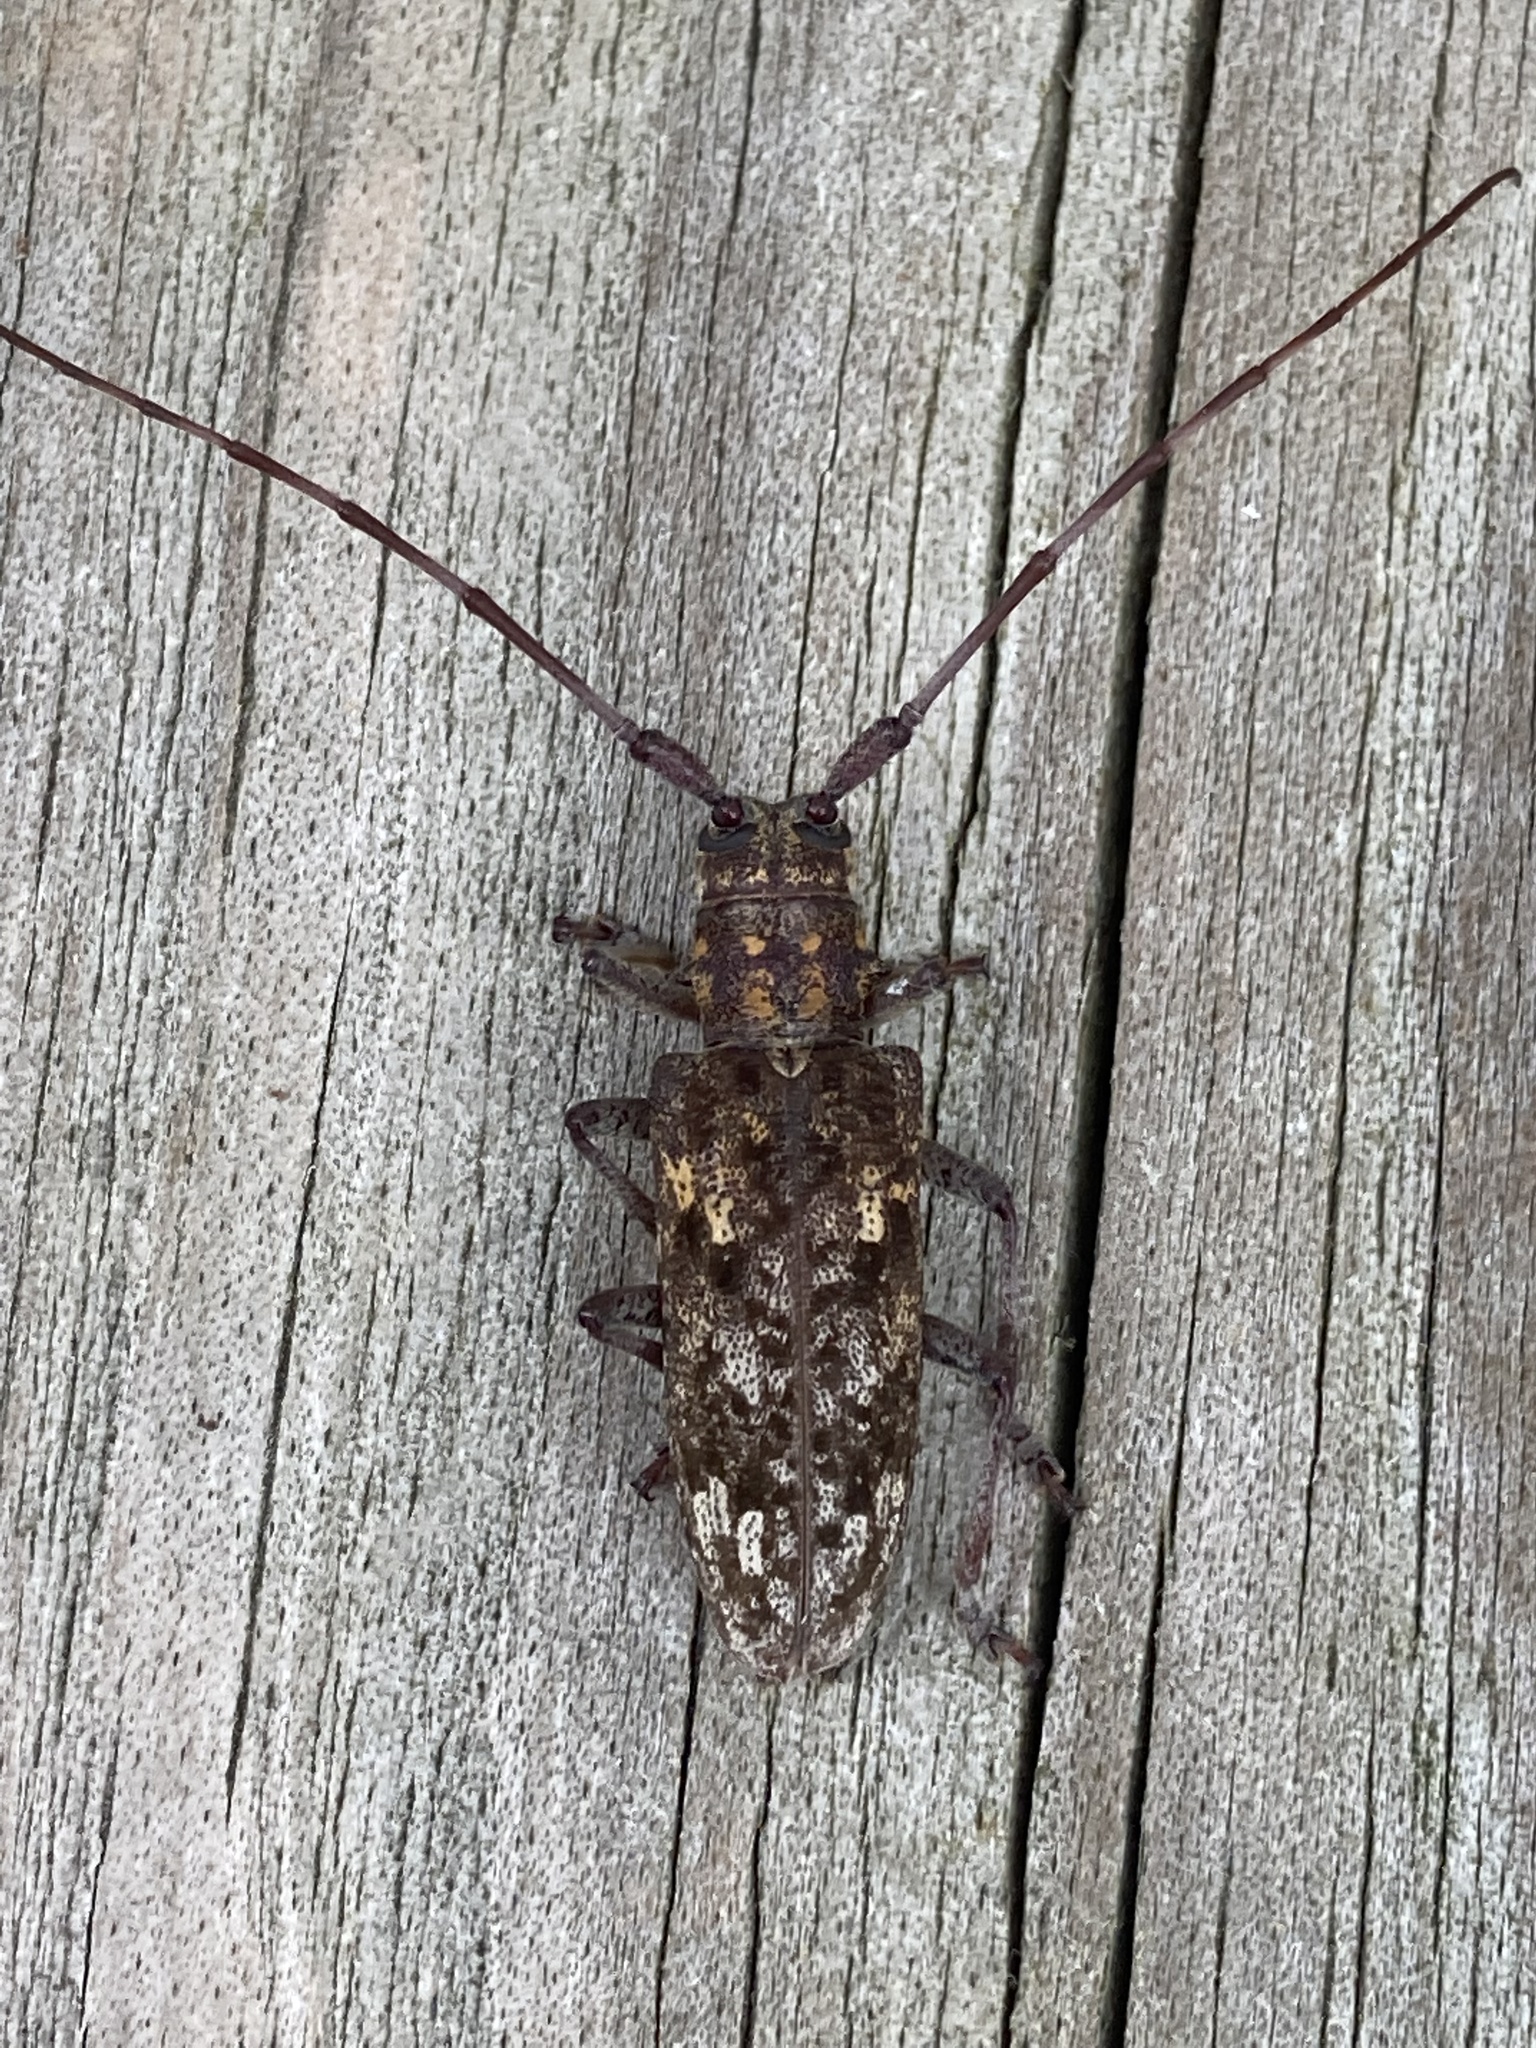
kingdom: Animalia
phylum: Arthropoda
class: Insecta
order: Coleoptera
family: Cerambycidae
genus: Monochamus
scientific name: Monochamus carolinensis
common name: Carolina pine sawyer
